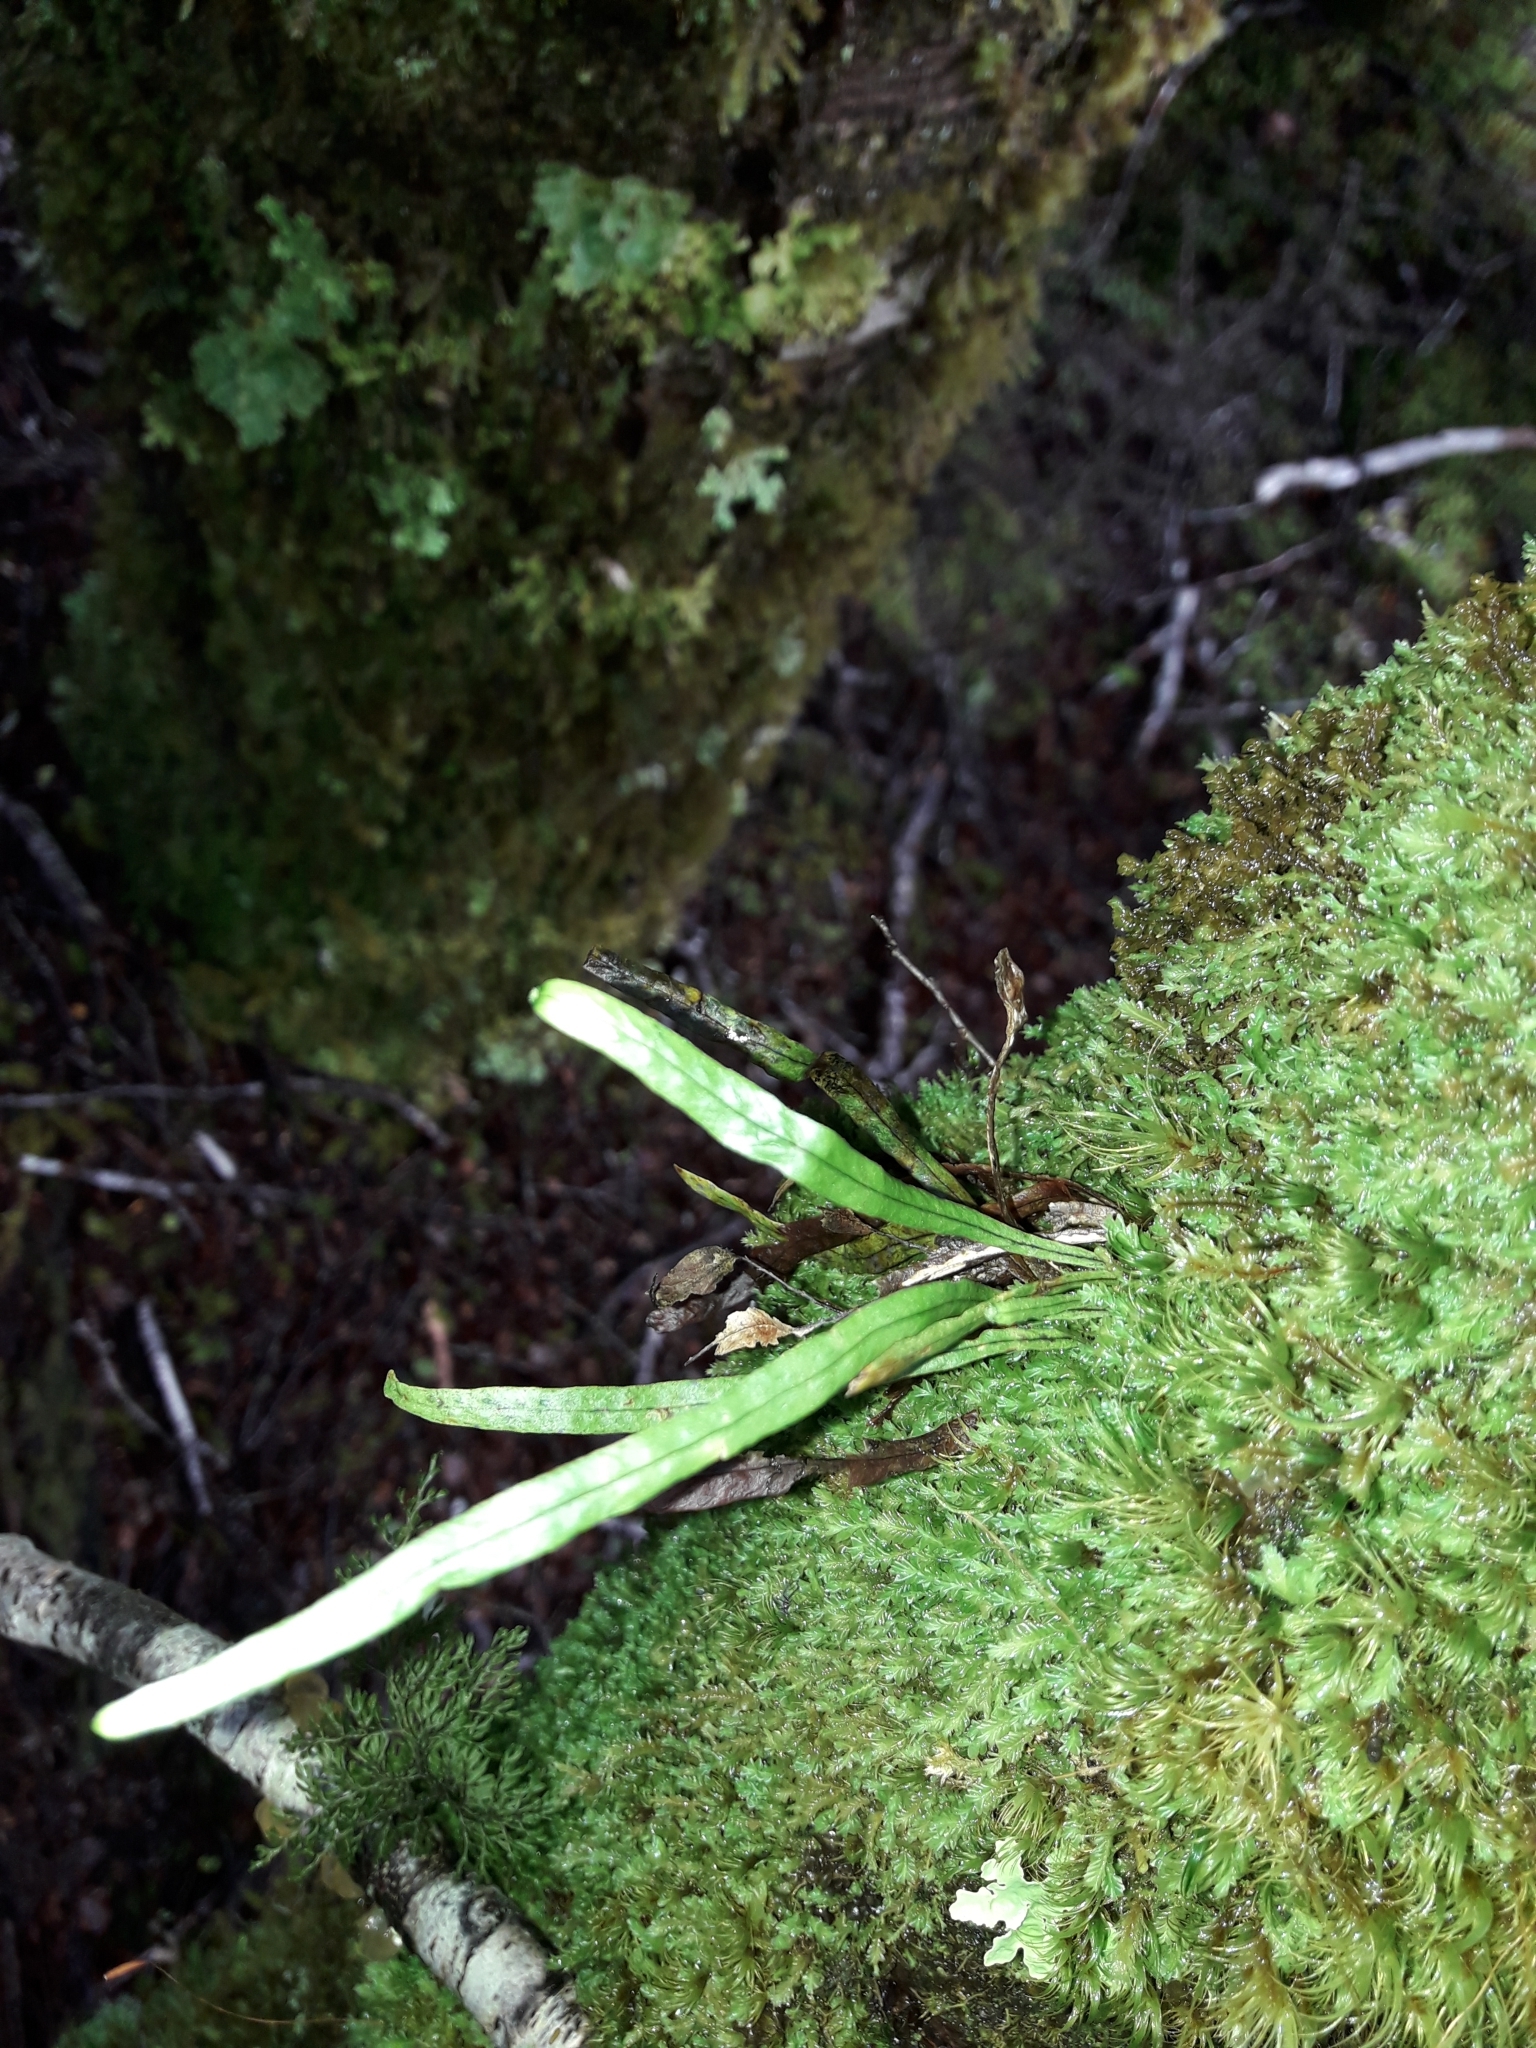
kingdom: Plantae
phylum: Tracheophyta
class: Polypodiopsida
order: Polypodiales
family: Polypodiaceae
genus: Notogrammitis
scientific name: Notogrammitis angustifolia
